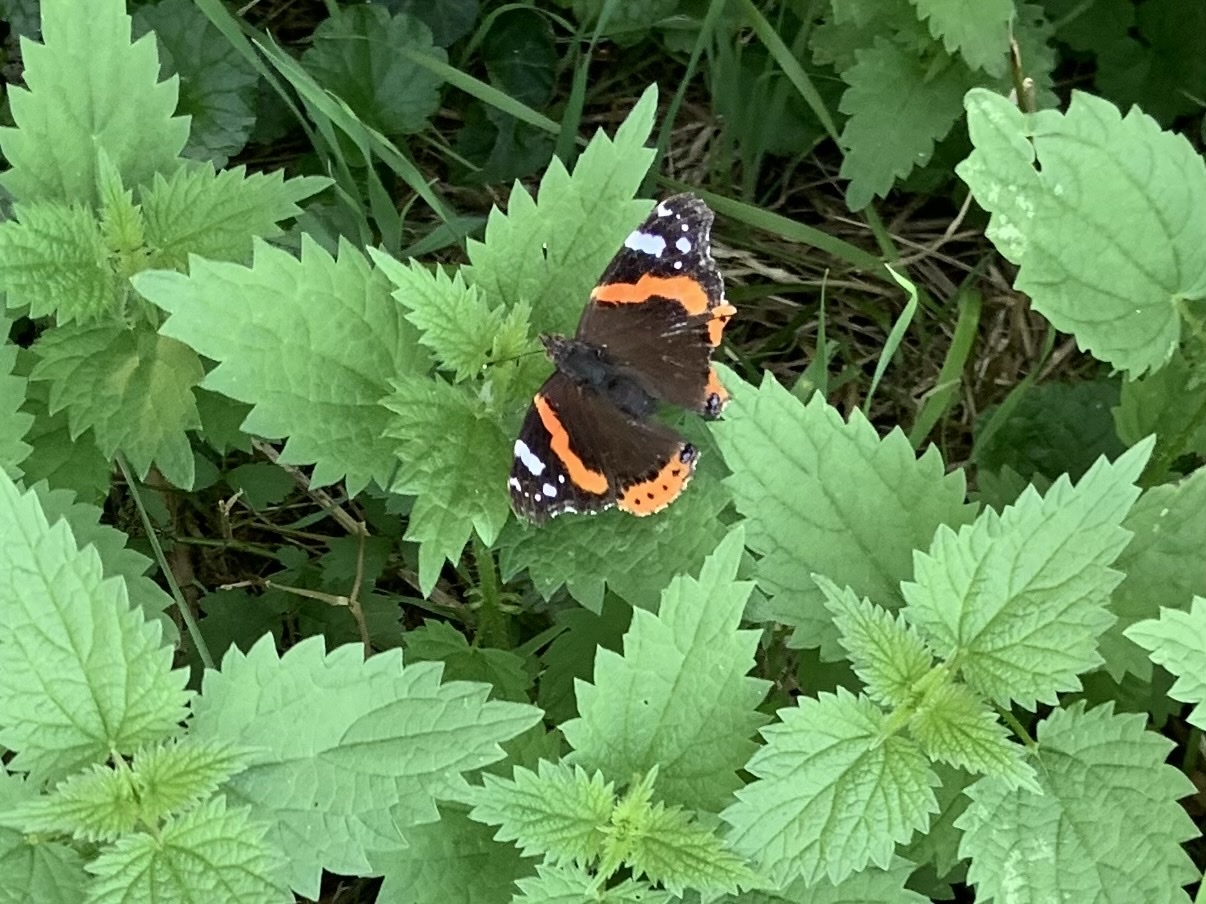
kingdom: Animalia
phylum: Arthropoda
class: Insecta
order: Lepidoptera
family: Nymphalidae
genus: Vanessa
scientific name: Vanessa atalanta
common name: Red admiral
